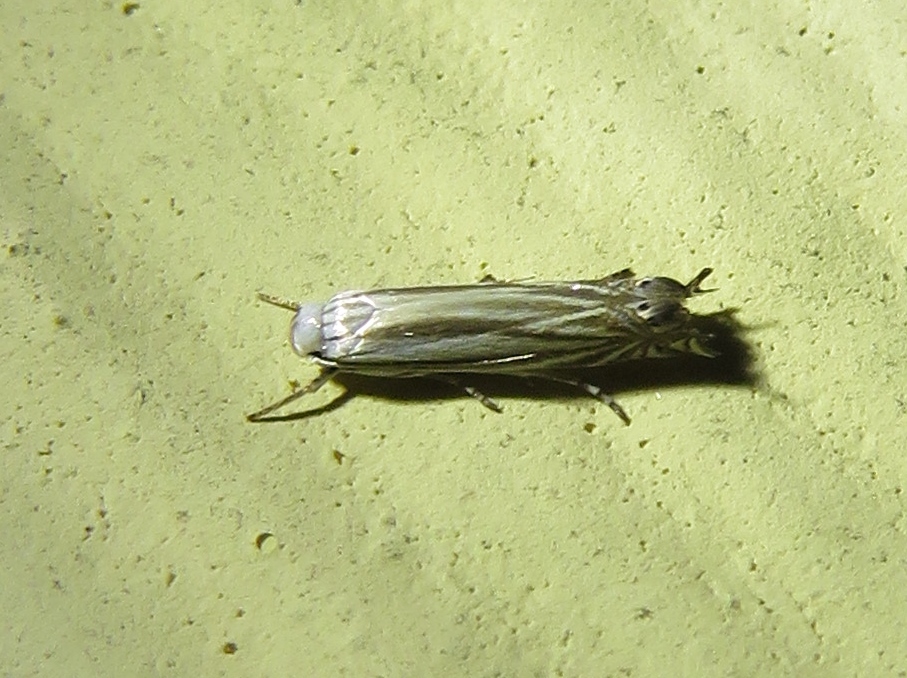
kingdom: Animalia
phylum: Arthropoda
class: Insecta
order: Lepidoptera
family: Gelechiidae
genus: Polyhymno
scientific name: Polyhymno luteostrigella
